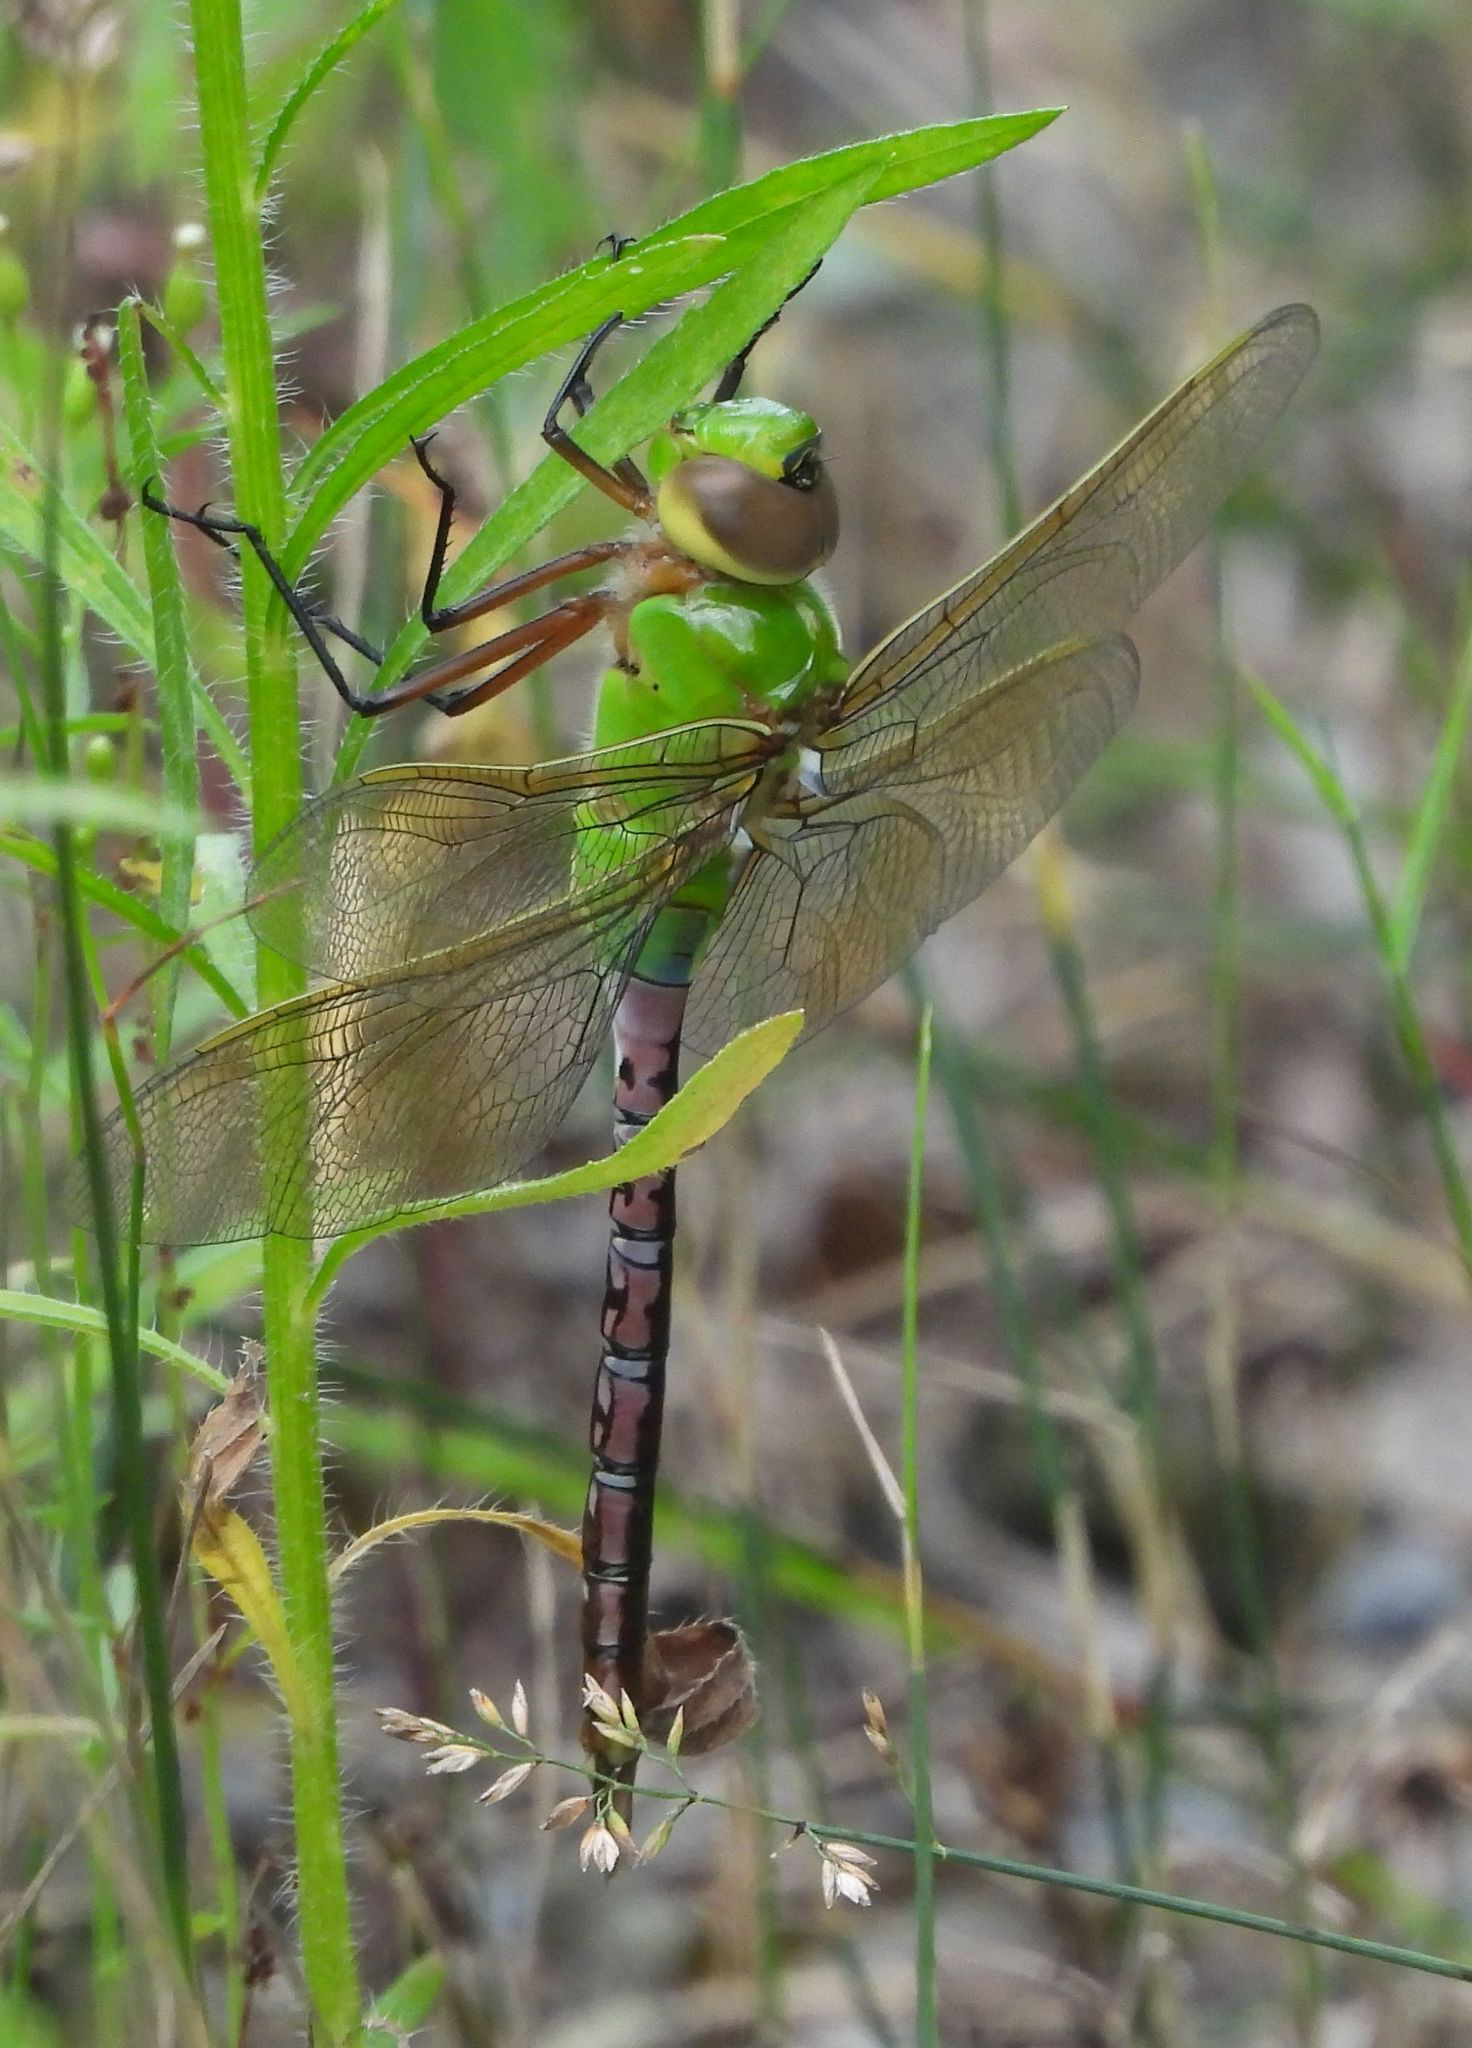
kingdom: Animalia
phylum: Arthropoda
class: Insecta
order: Odonata
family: Aeshnidae
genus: Anax
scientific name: Anax junius
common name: Common green darner
